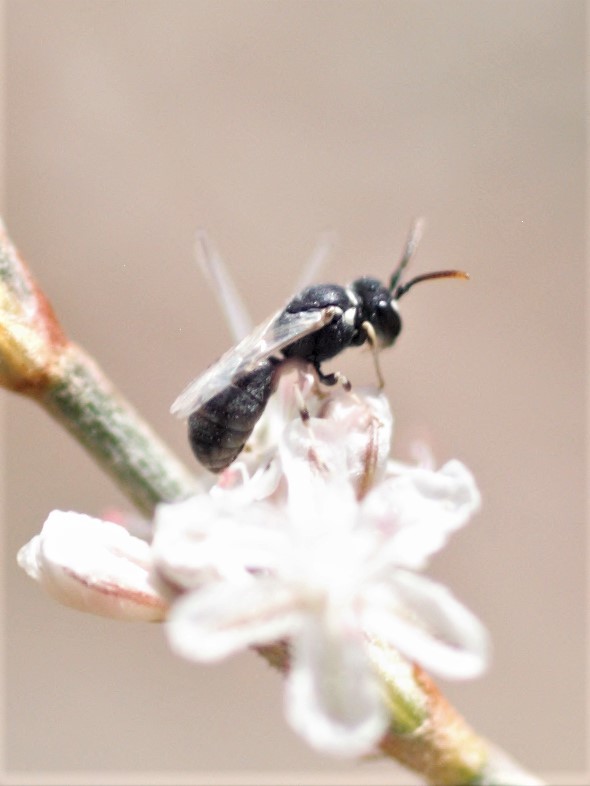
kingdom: Animalia
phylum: Arthropoda
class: Insecta
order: Hymenoptera
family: Colletidae
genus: Hylaeus
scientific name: Hylaeus
